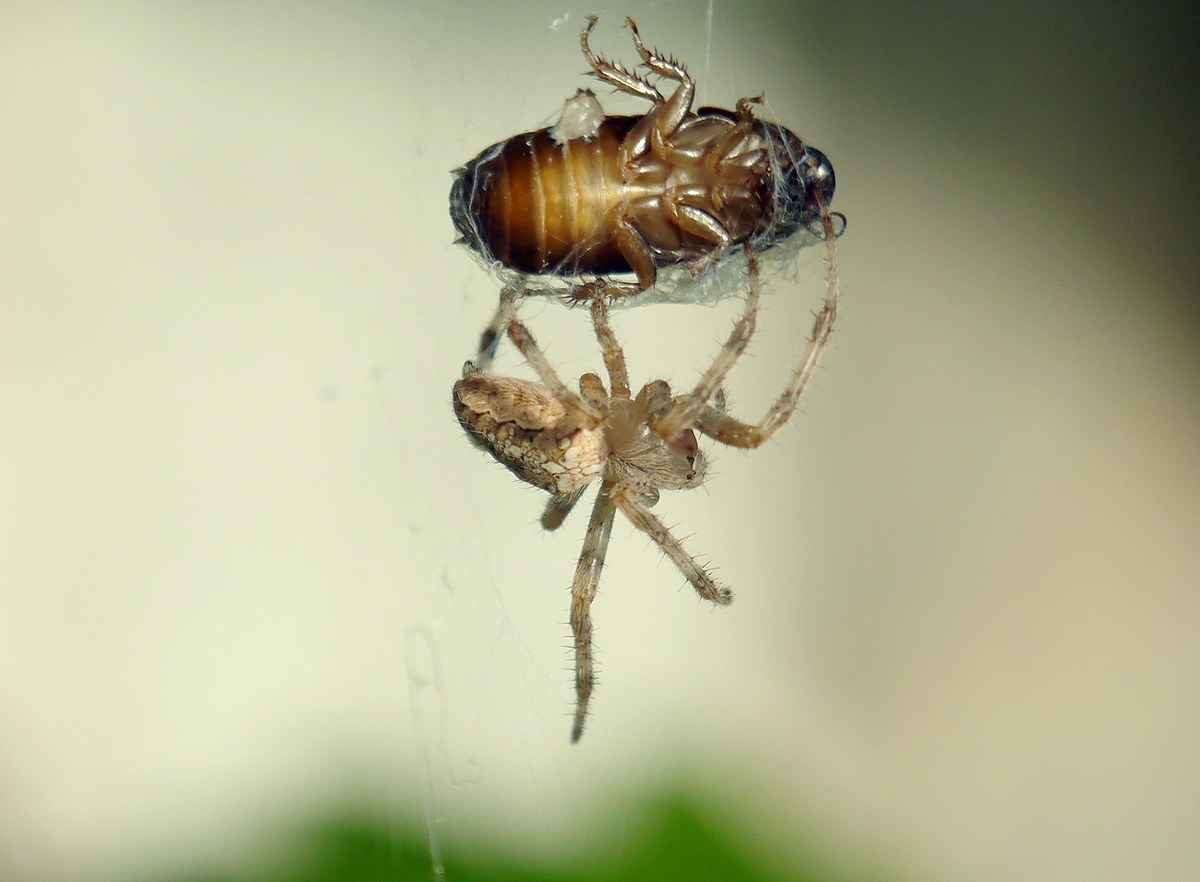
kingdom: Animalia
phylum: Arthropoda
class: Arachnida
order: Araneae
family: Araneidae
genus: Araneus
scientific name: Araneus diadematus
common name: Cross orbweaver
